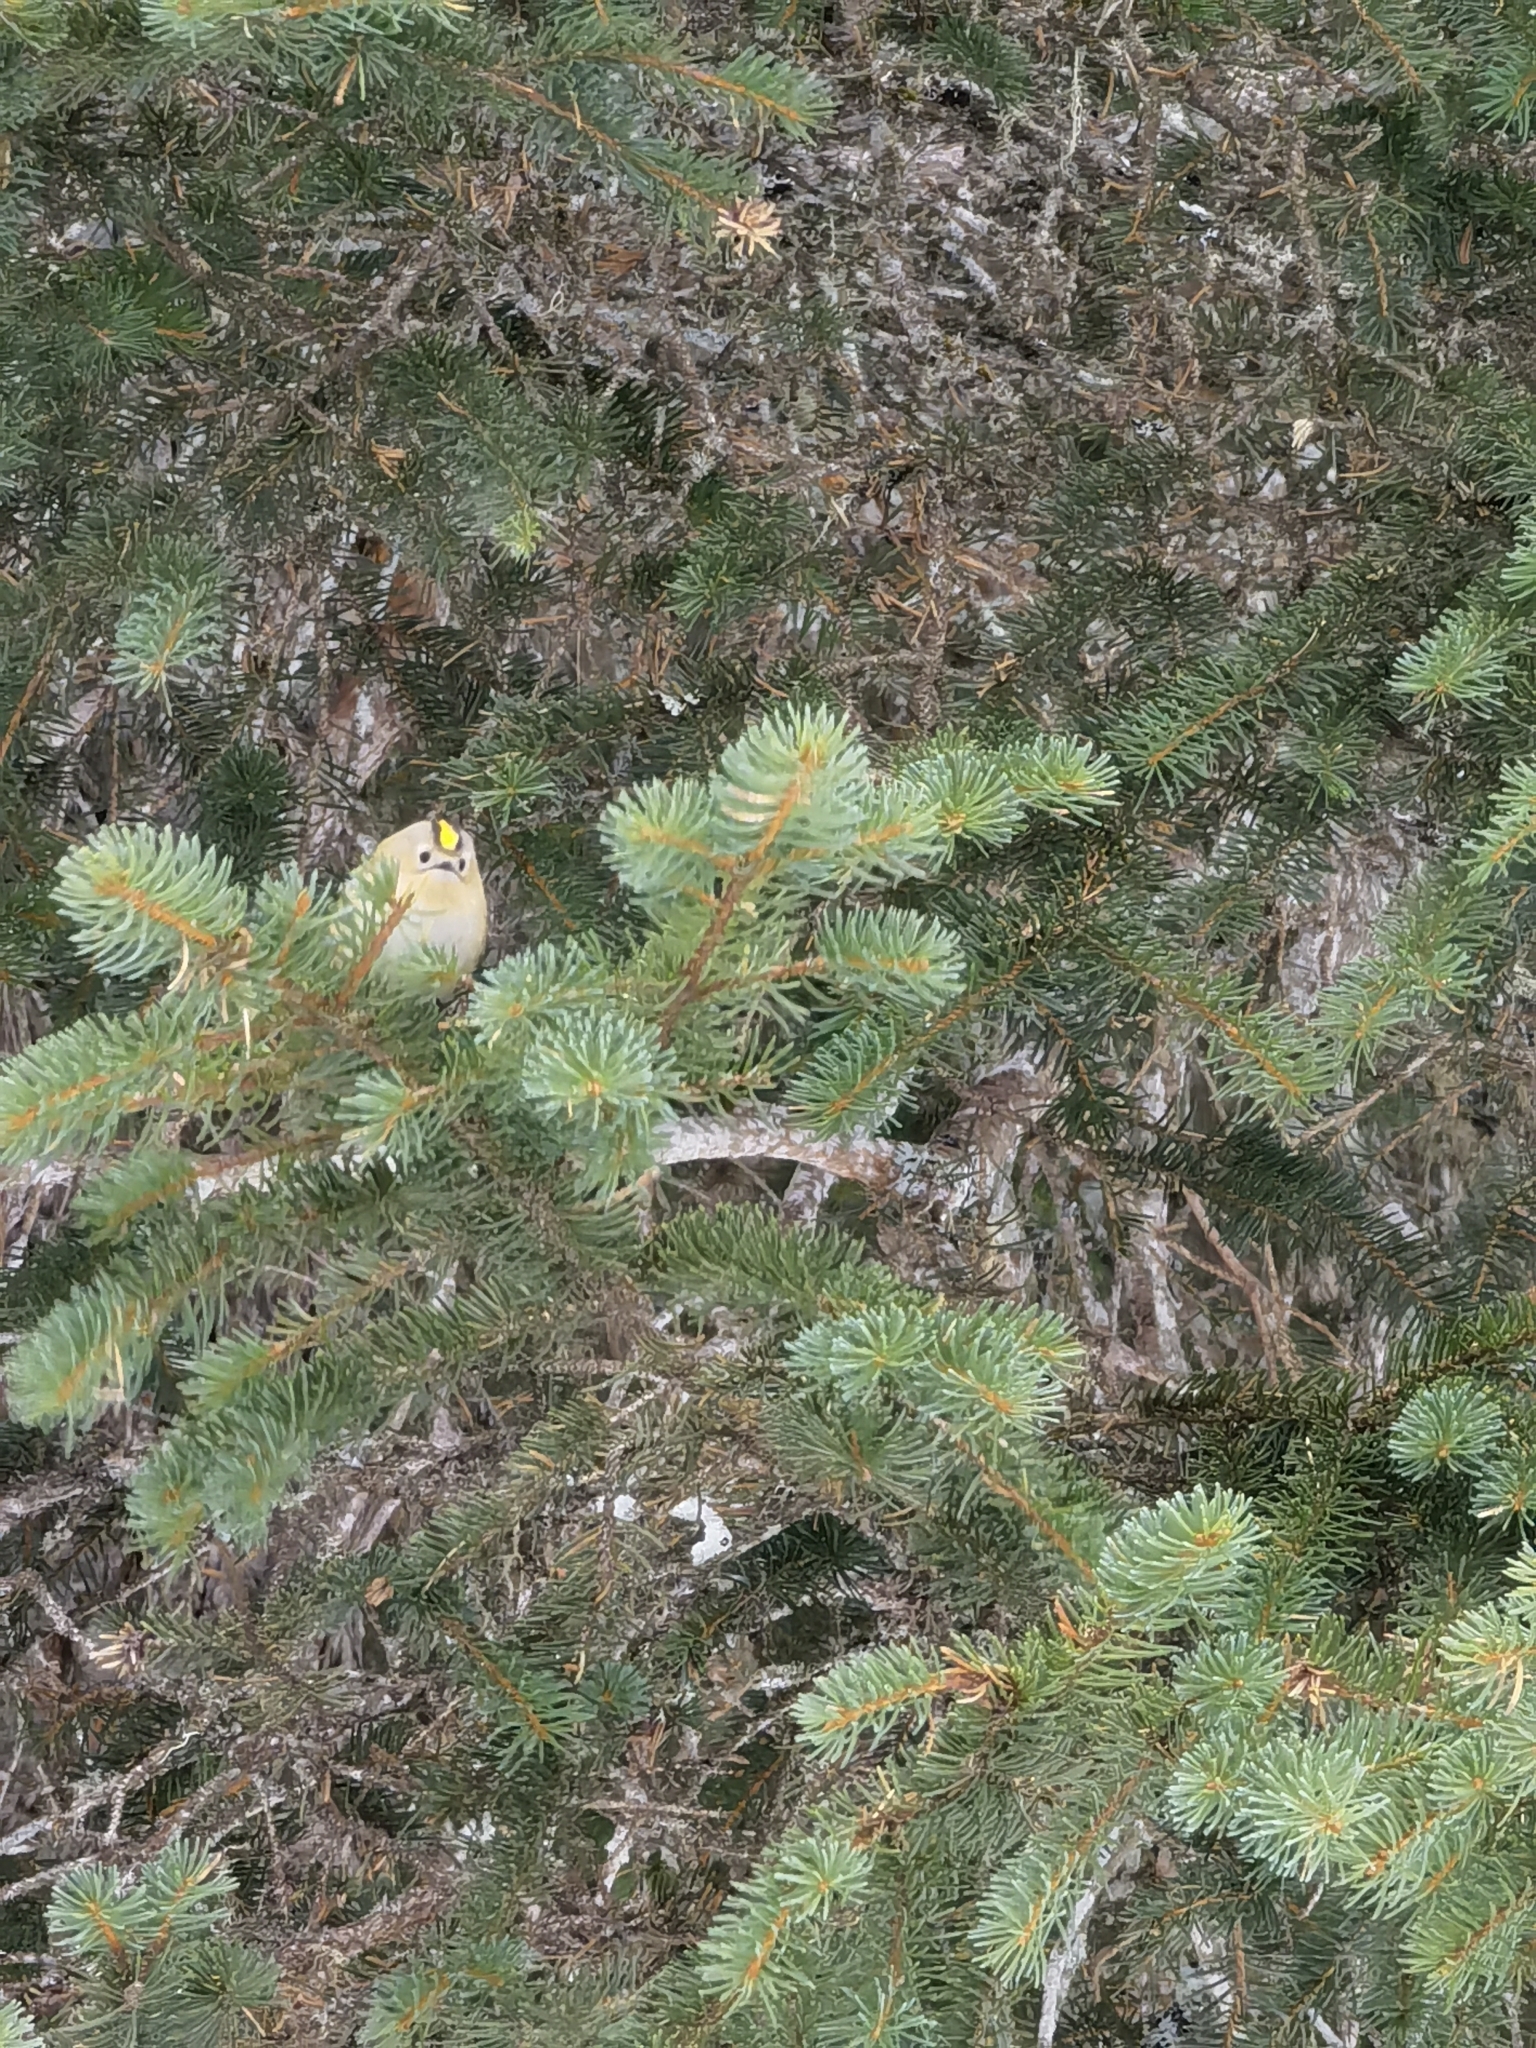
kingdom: Animalia
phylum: Chordata
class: Aves
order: Passeriformes
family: Regulidae
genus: Regulus
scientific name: Regulus regulus
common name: Goldcrest
